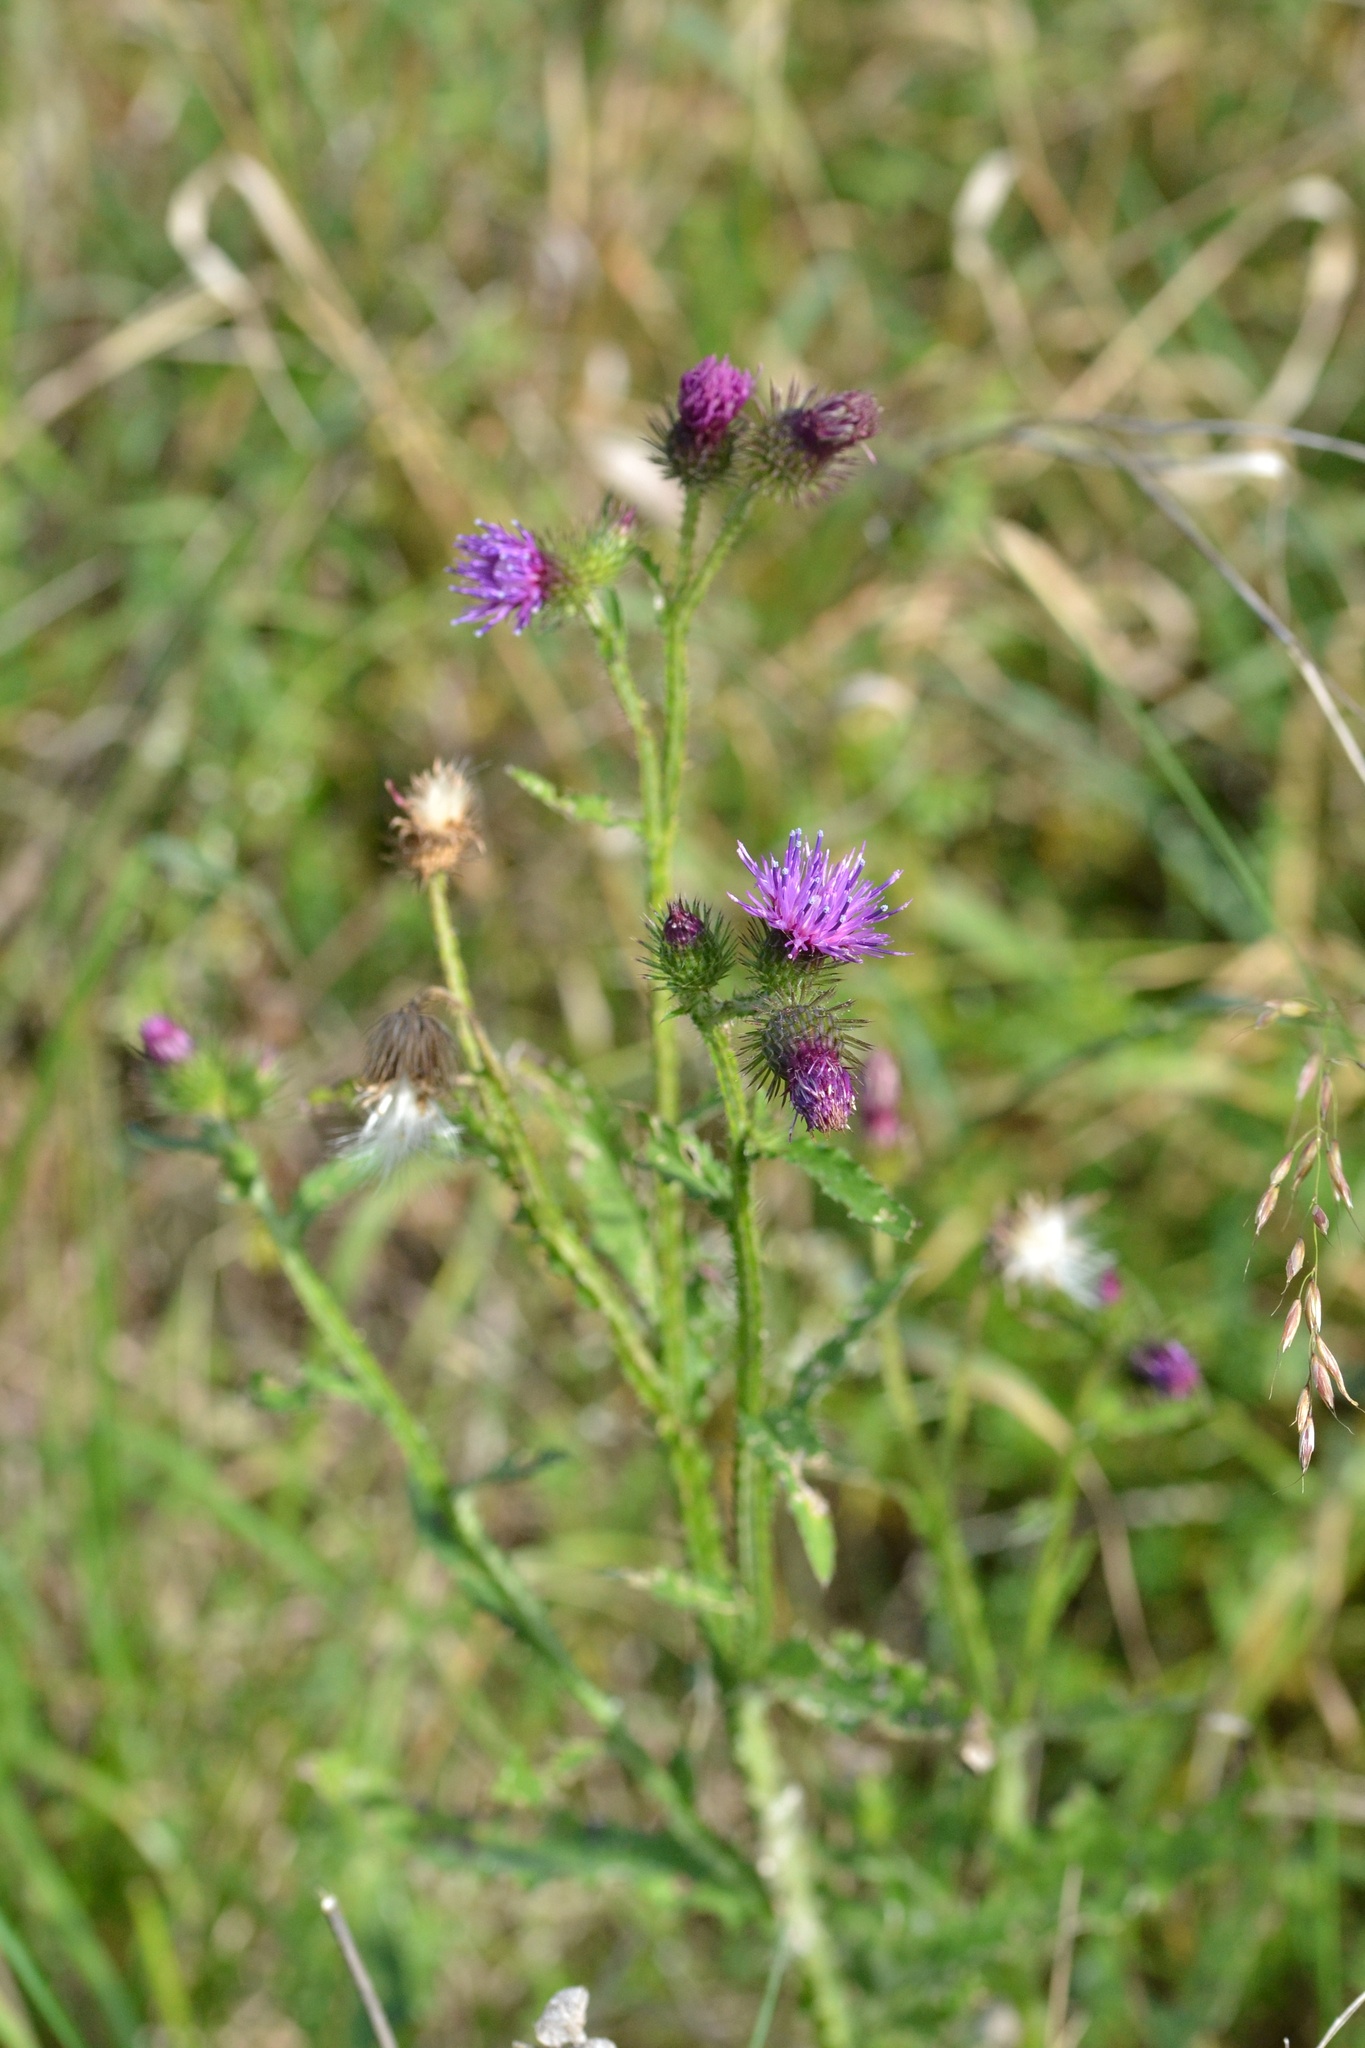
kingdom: Plantae
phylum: Tracheophyta
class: Magnoliopsida
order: Asterales
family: Asteraceae
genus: Carduus
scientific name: Carduus crispus
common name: Welted thistle
